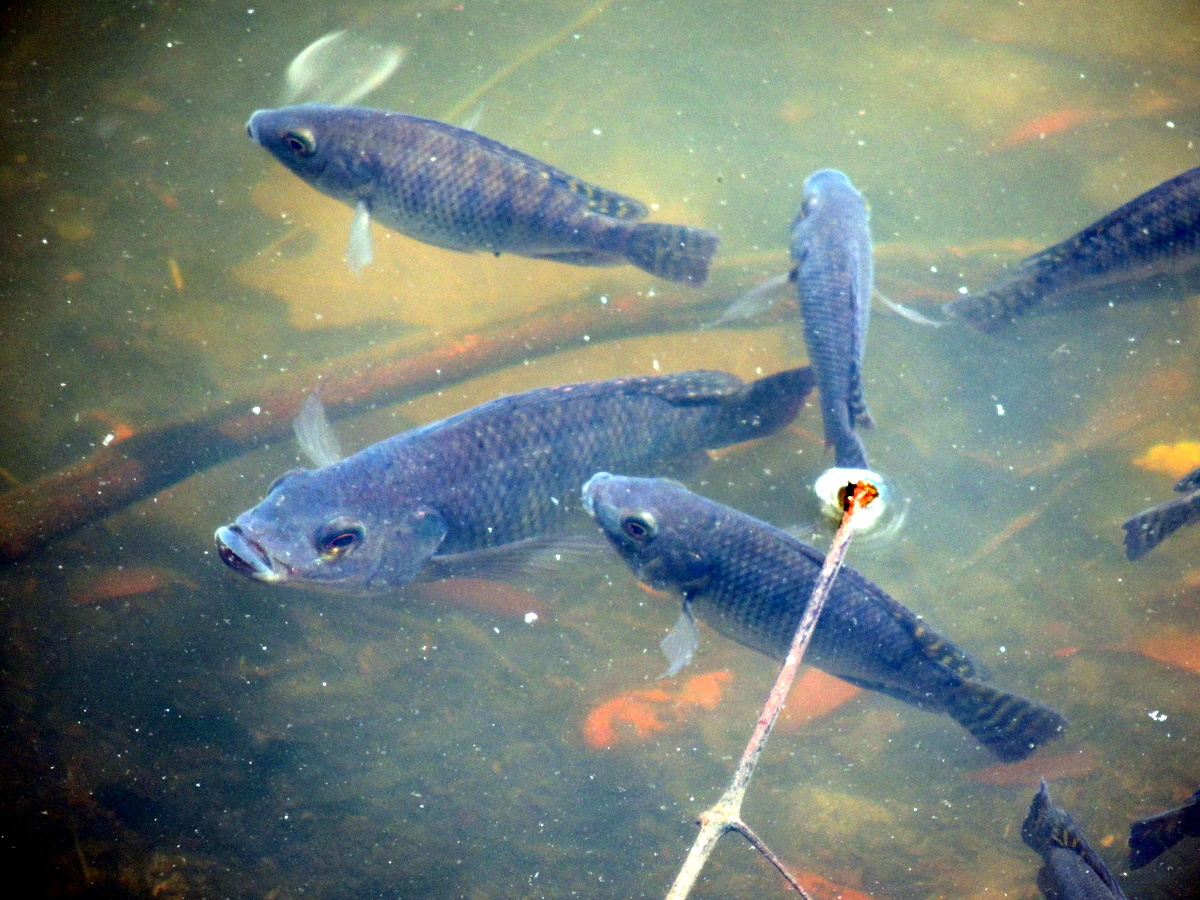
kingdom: Animalia
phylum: Chordata
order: Perciformes
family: Cichlidae
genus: Oreochromis
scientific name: Oreochromis niloticus
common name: Nile tilapia
